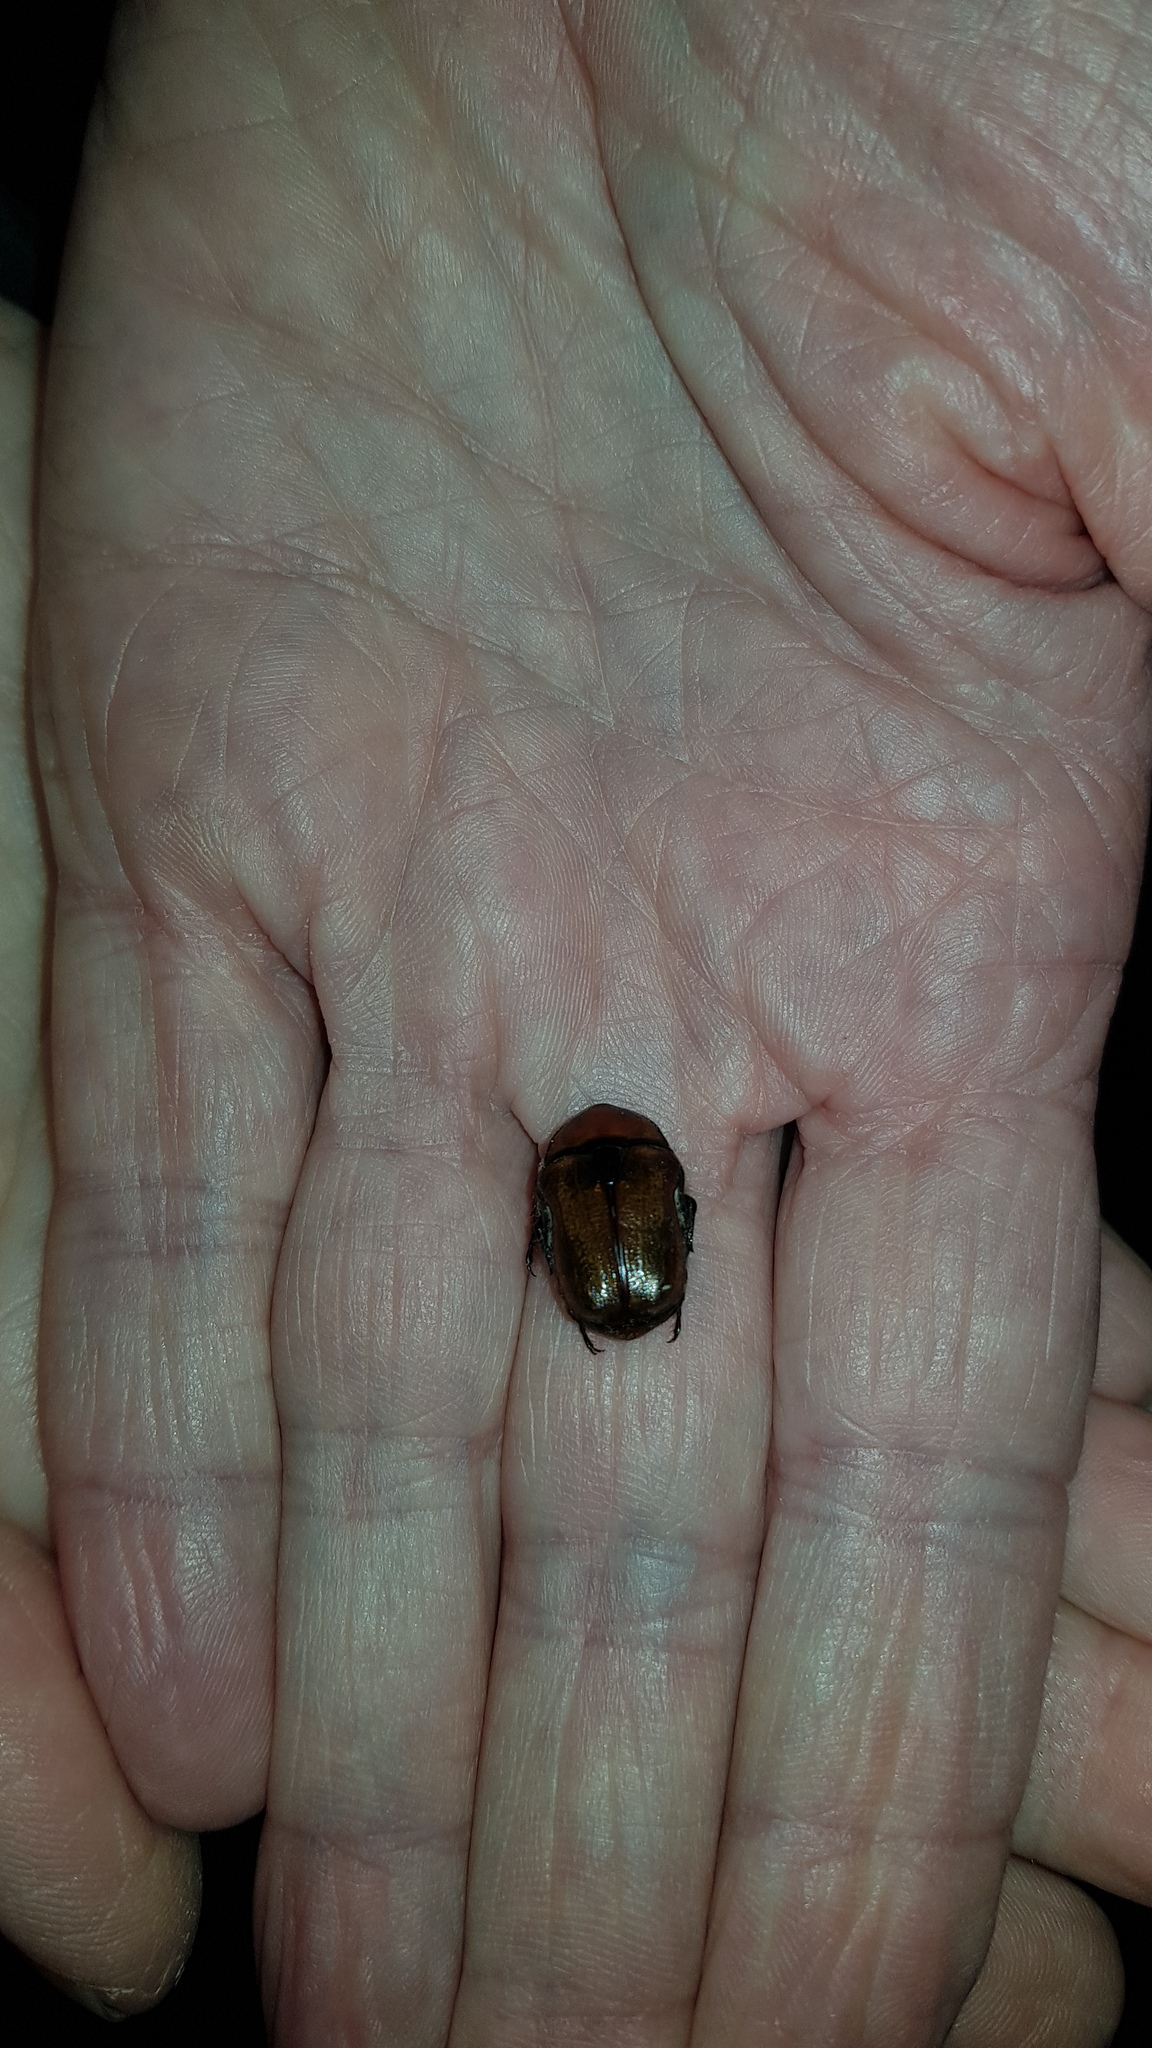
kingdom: Animalia
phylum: Arthropoda
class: Insecta
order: Coleoptera
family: Scarabaeidae
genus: Bisallardiana
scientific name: Bisallardiana gymnopleura
